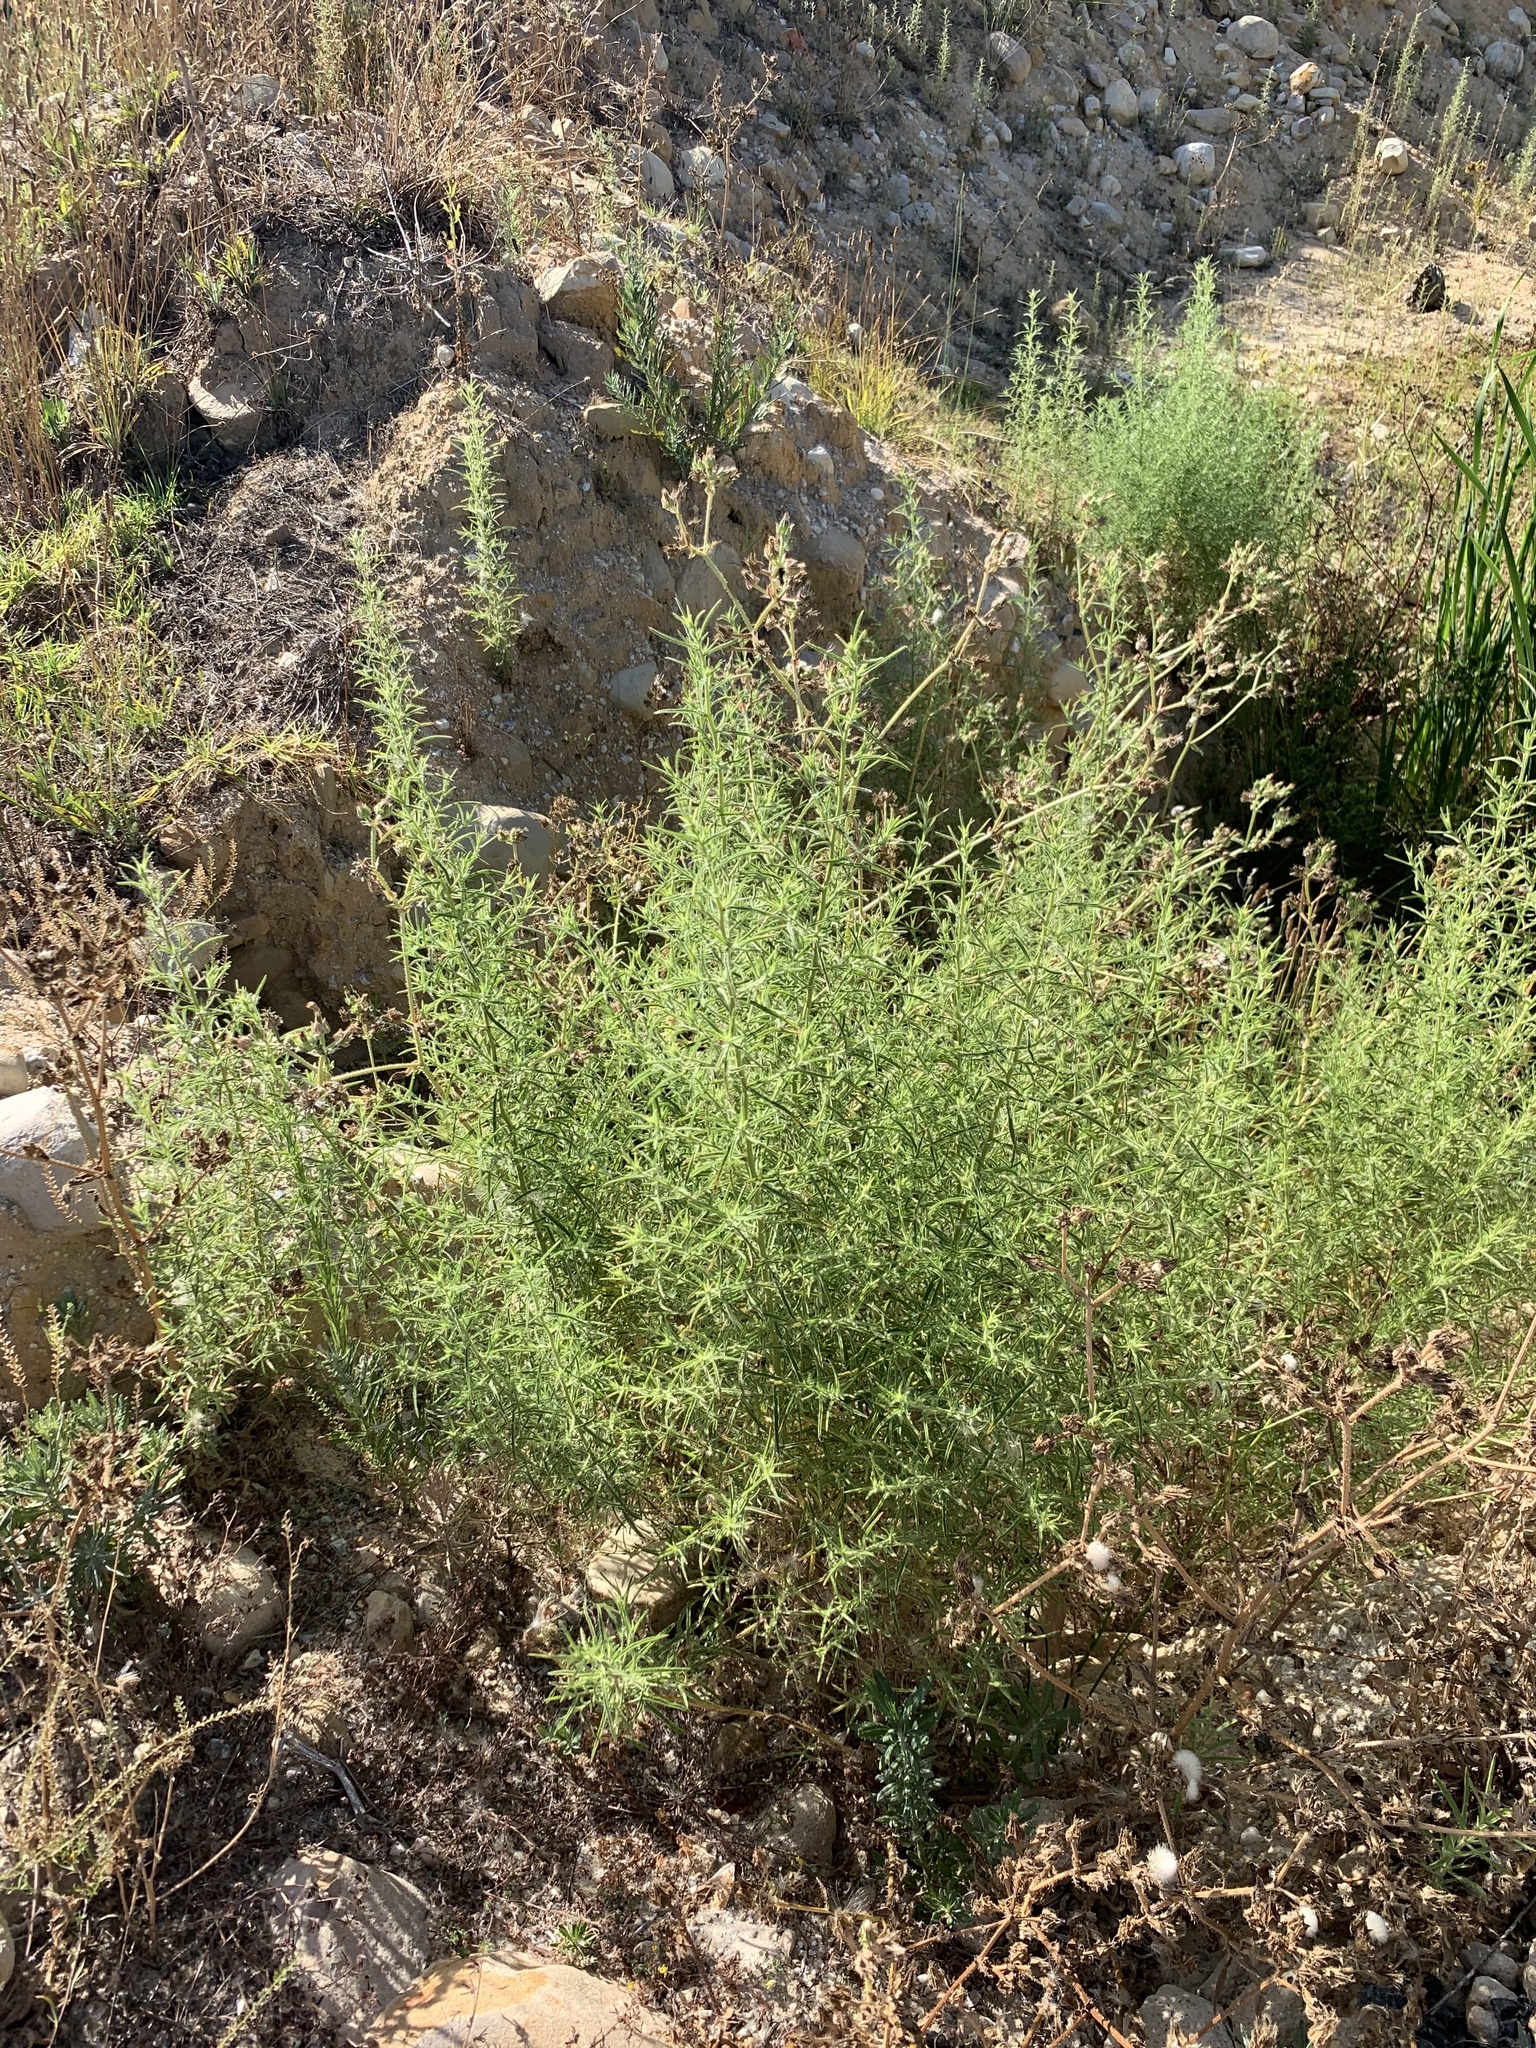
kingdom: Plantae
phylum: Tracheophyta
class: Magnoliopsida
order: Asterales
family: Asteraceae
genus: Dittrichia
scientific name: Dittrichia graveolens
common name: Stinking fleabane
